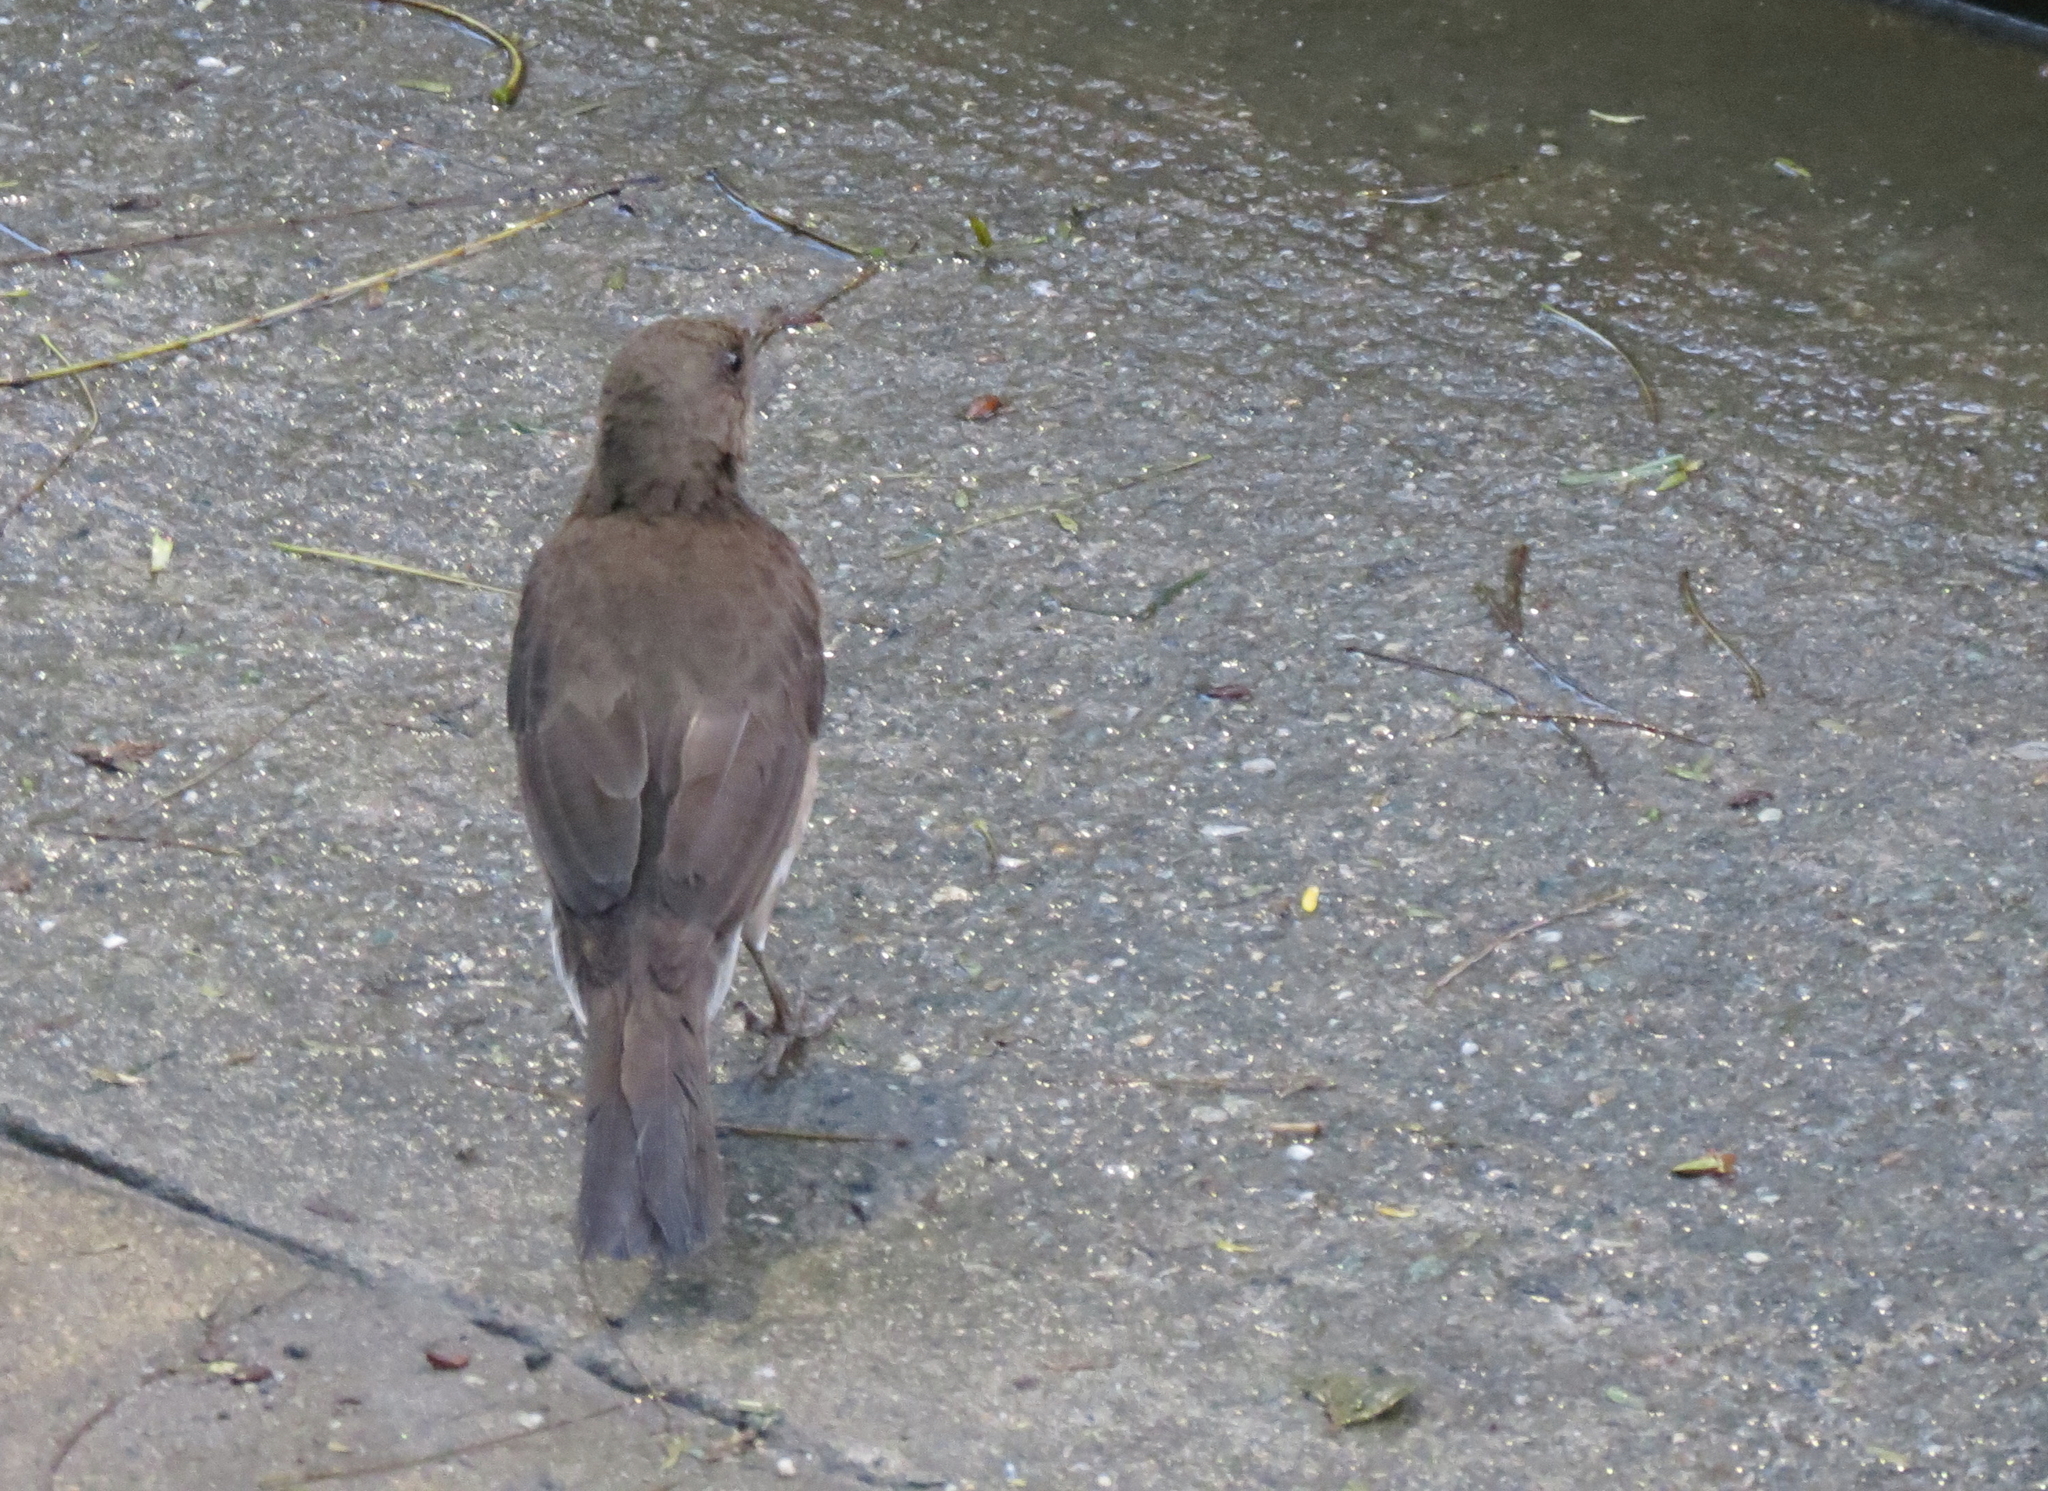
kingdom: Animalia
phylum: Chordata
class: Aves
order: Passeriformes
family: Turdidae
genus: Turdus
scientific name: Turdus ignobilis
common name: Black-billed thrush
